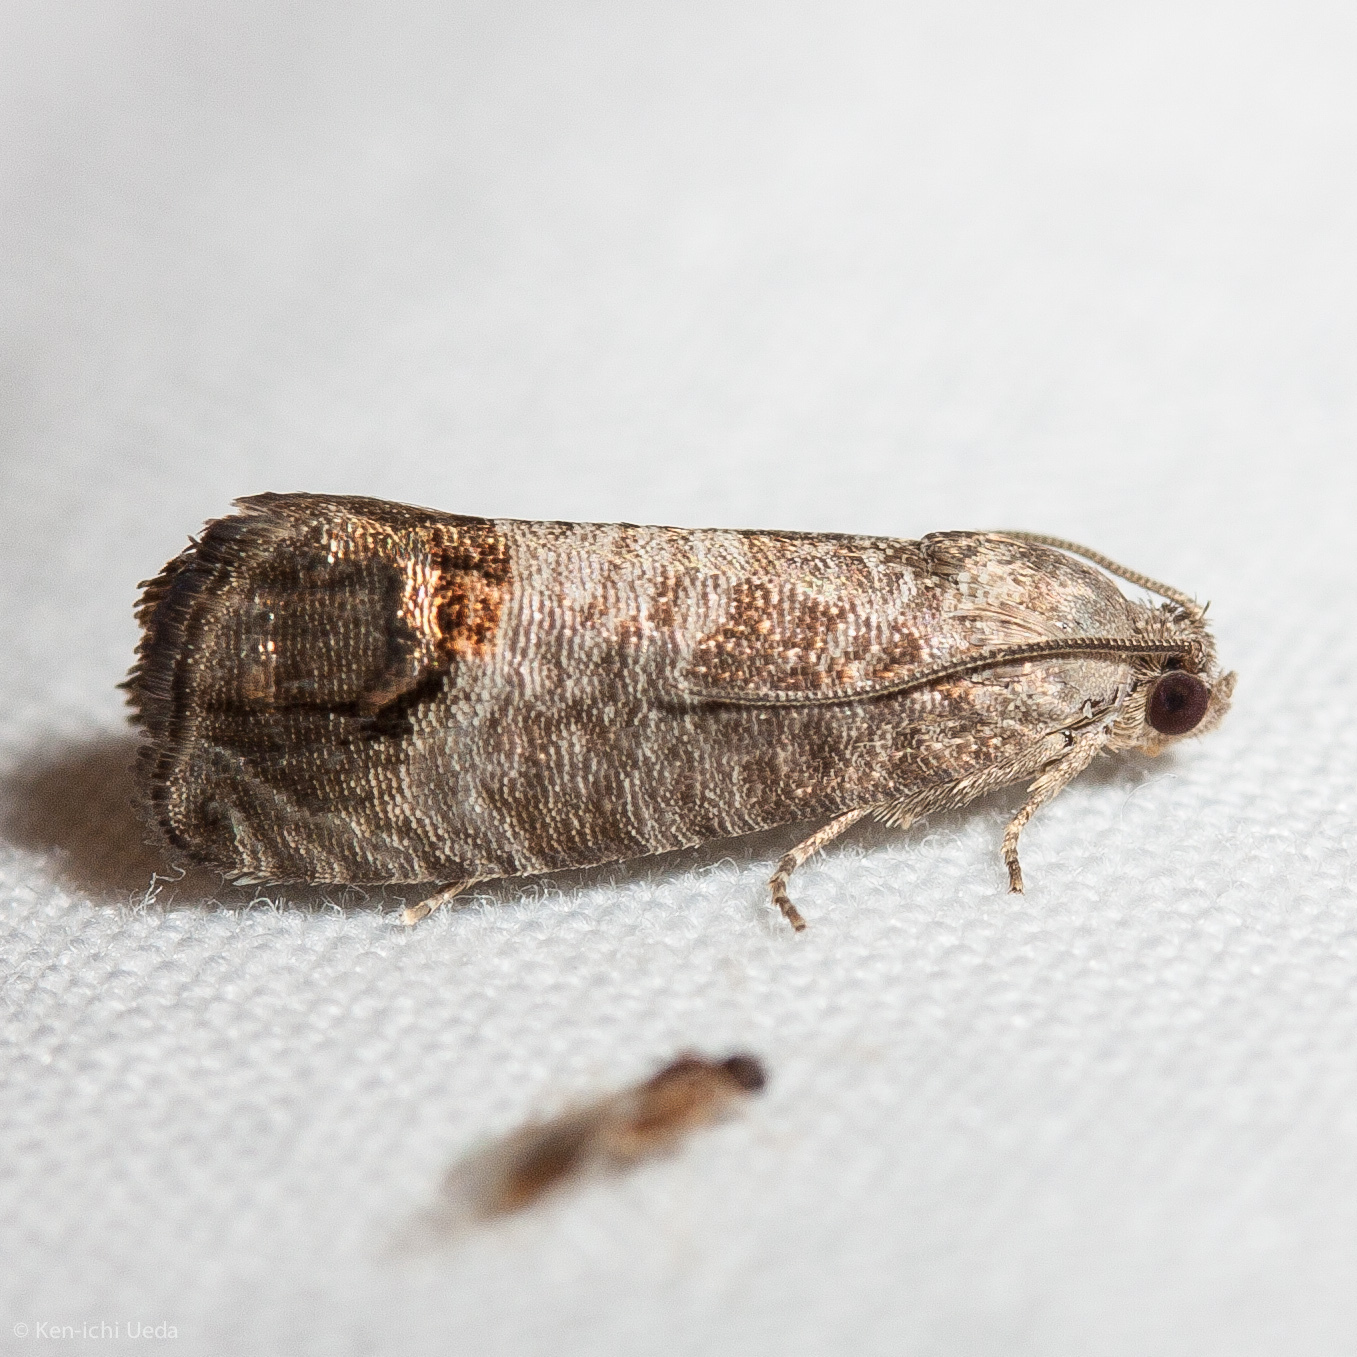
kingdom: Animalia
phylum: Arthropoda
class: Insecta
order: Lepidoptera
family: Tortricidae
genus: Cydia
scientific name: Cydia pomonella
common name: Codling moth
